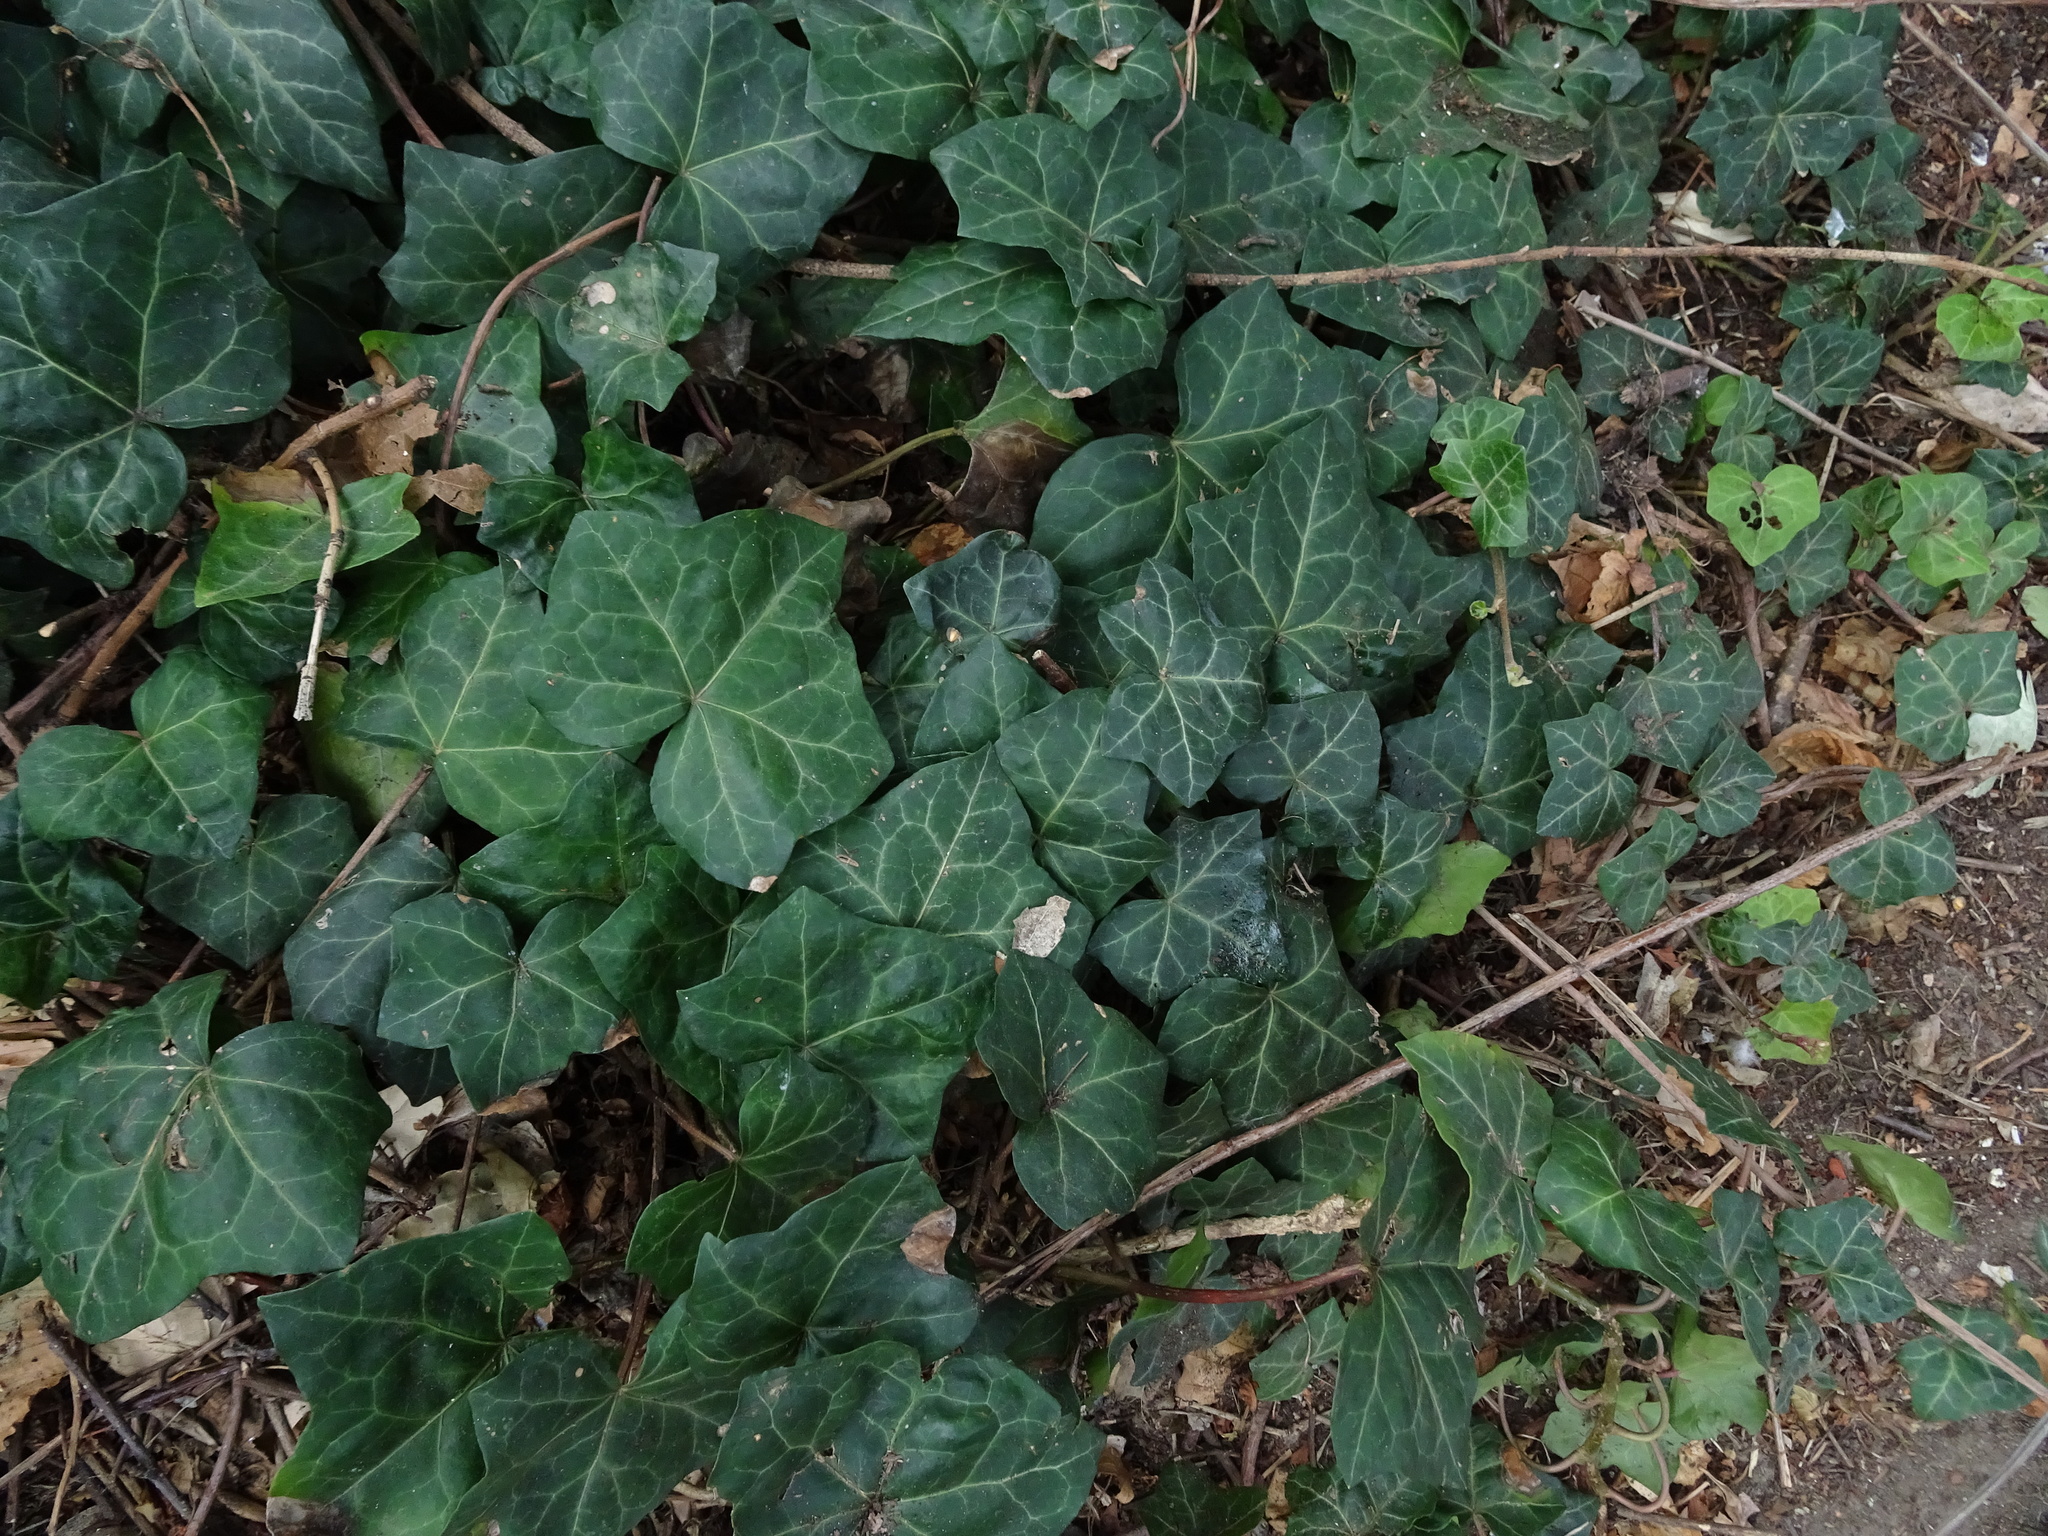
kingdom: Plantae
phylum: Tracheophyta
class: Magnoliopsida
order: Apiales
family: Araliaceae
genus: Hedera
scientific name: Hedera helix
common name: Ivy
